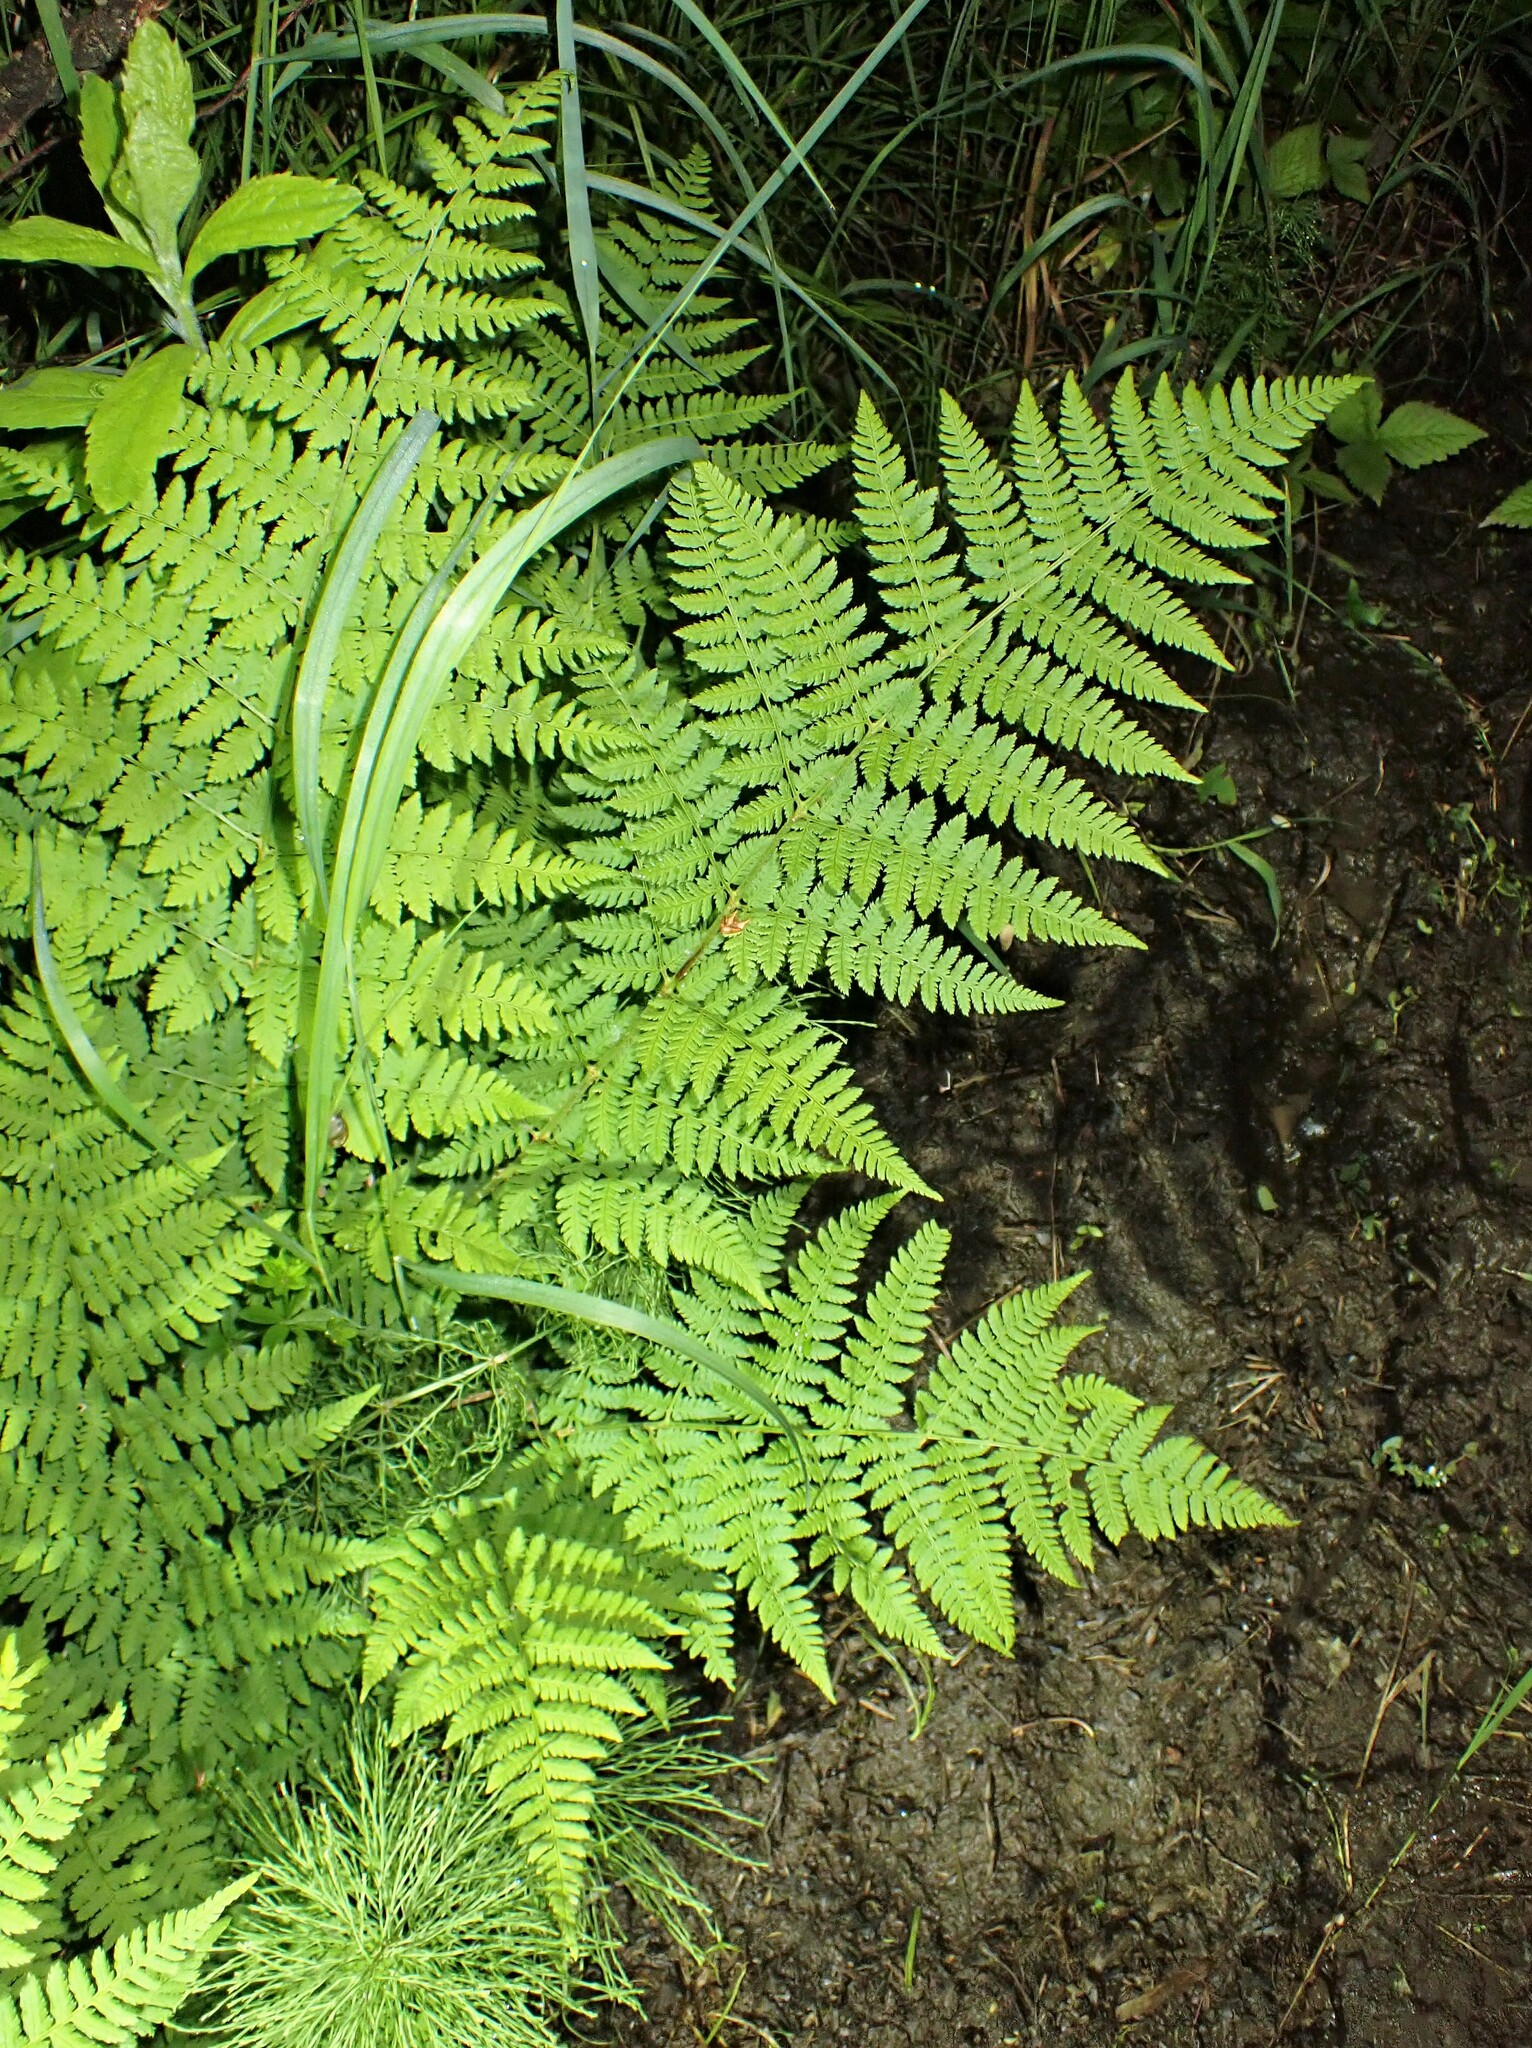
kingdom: Plantae
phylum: Tracheophyta
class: Polypodiopsida
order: Polypodiales
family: Dryopteridaceae
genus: Dryopteris
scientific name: Dryopteris intermedia
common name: Evergreen wood fern
